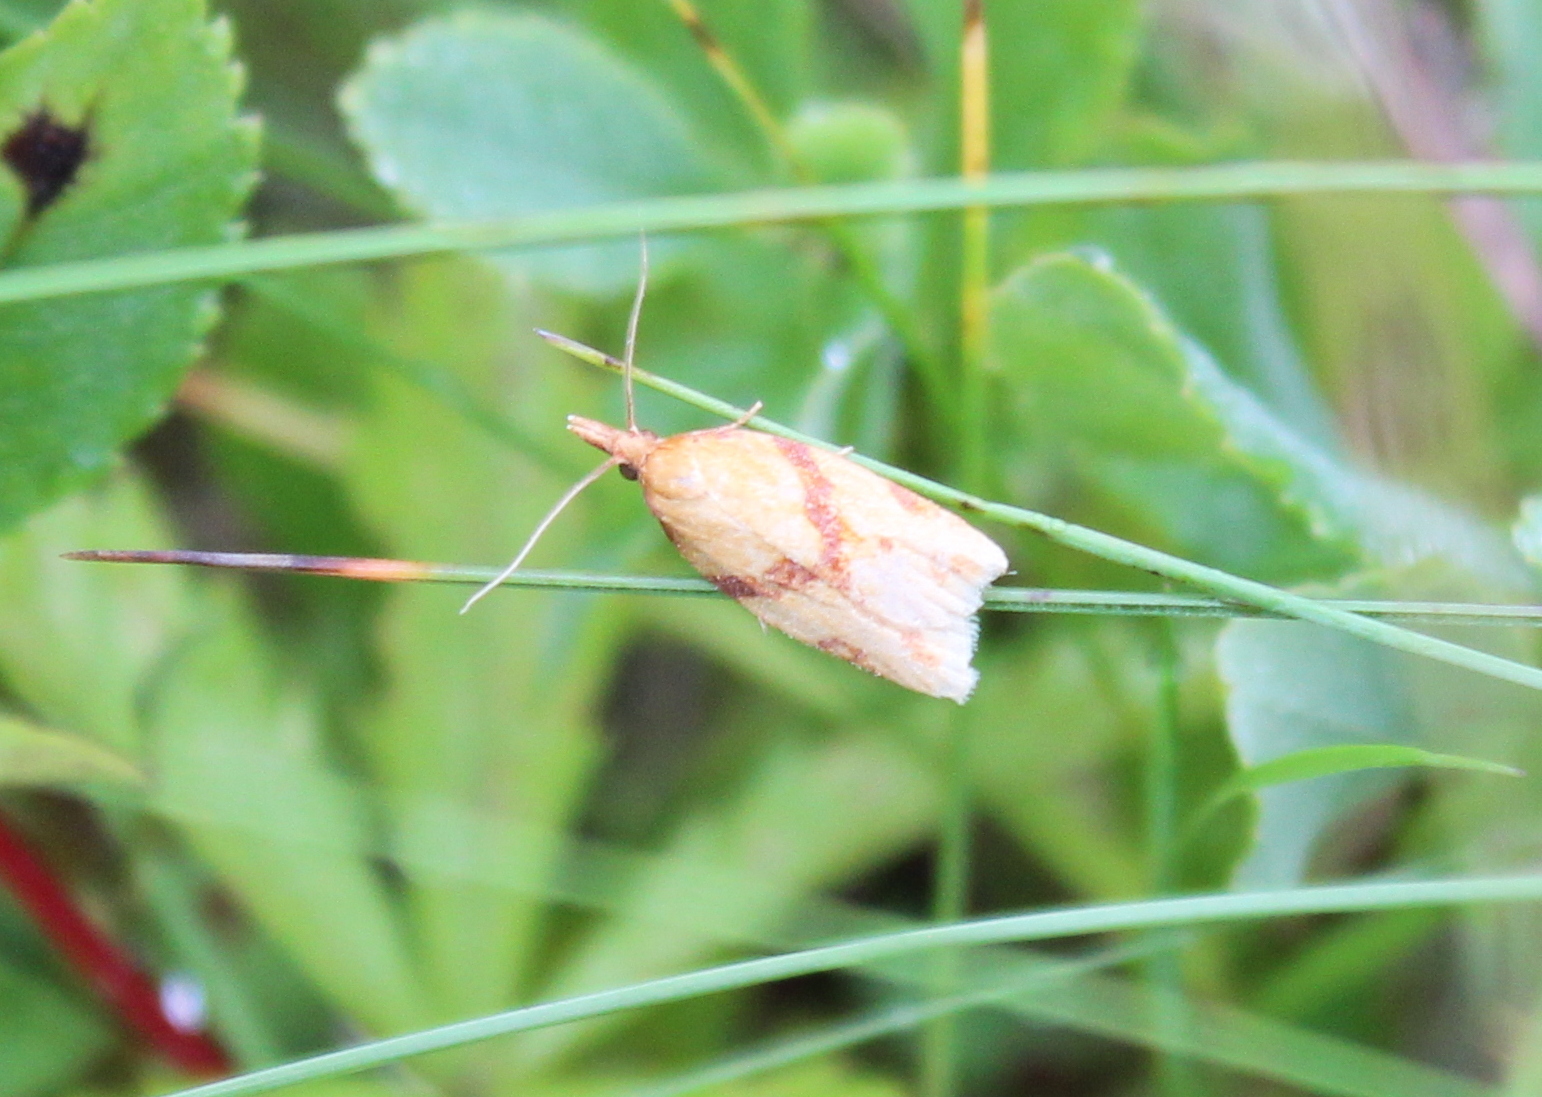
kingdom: Animalia
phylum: Arthropoda
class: Insecta
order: Lepidoptera
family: Tortricidae
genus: Sparganothis
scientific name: Sparganothis unifasciana
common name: One-lined sparganothis moth
